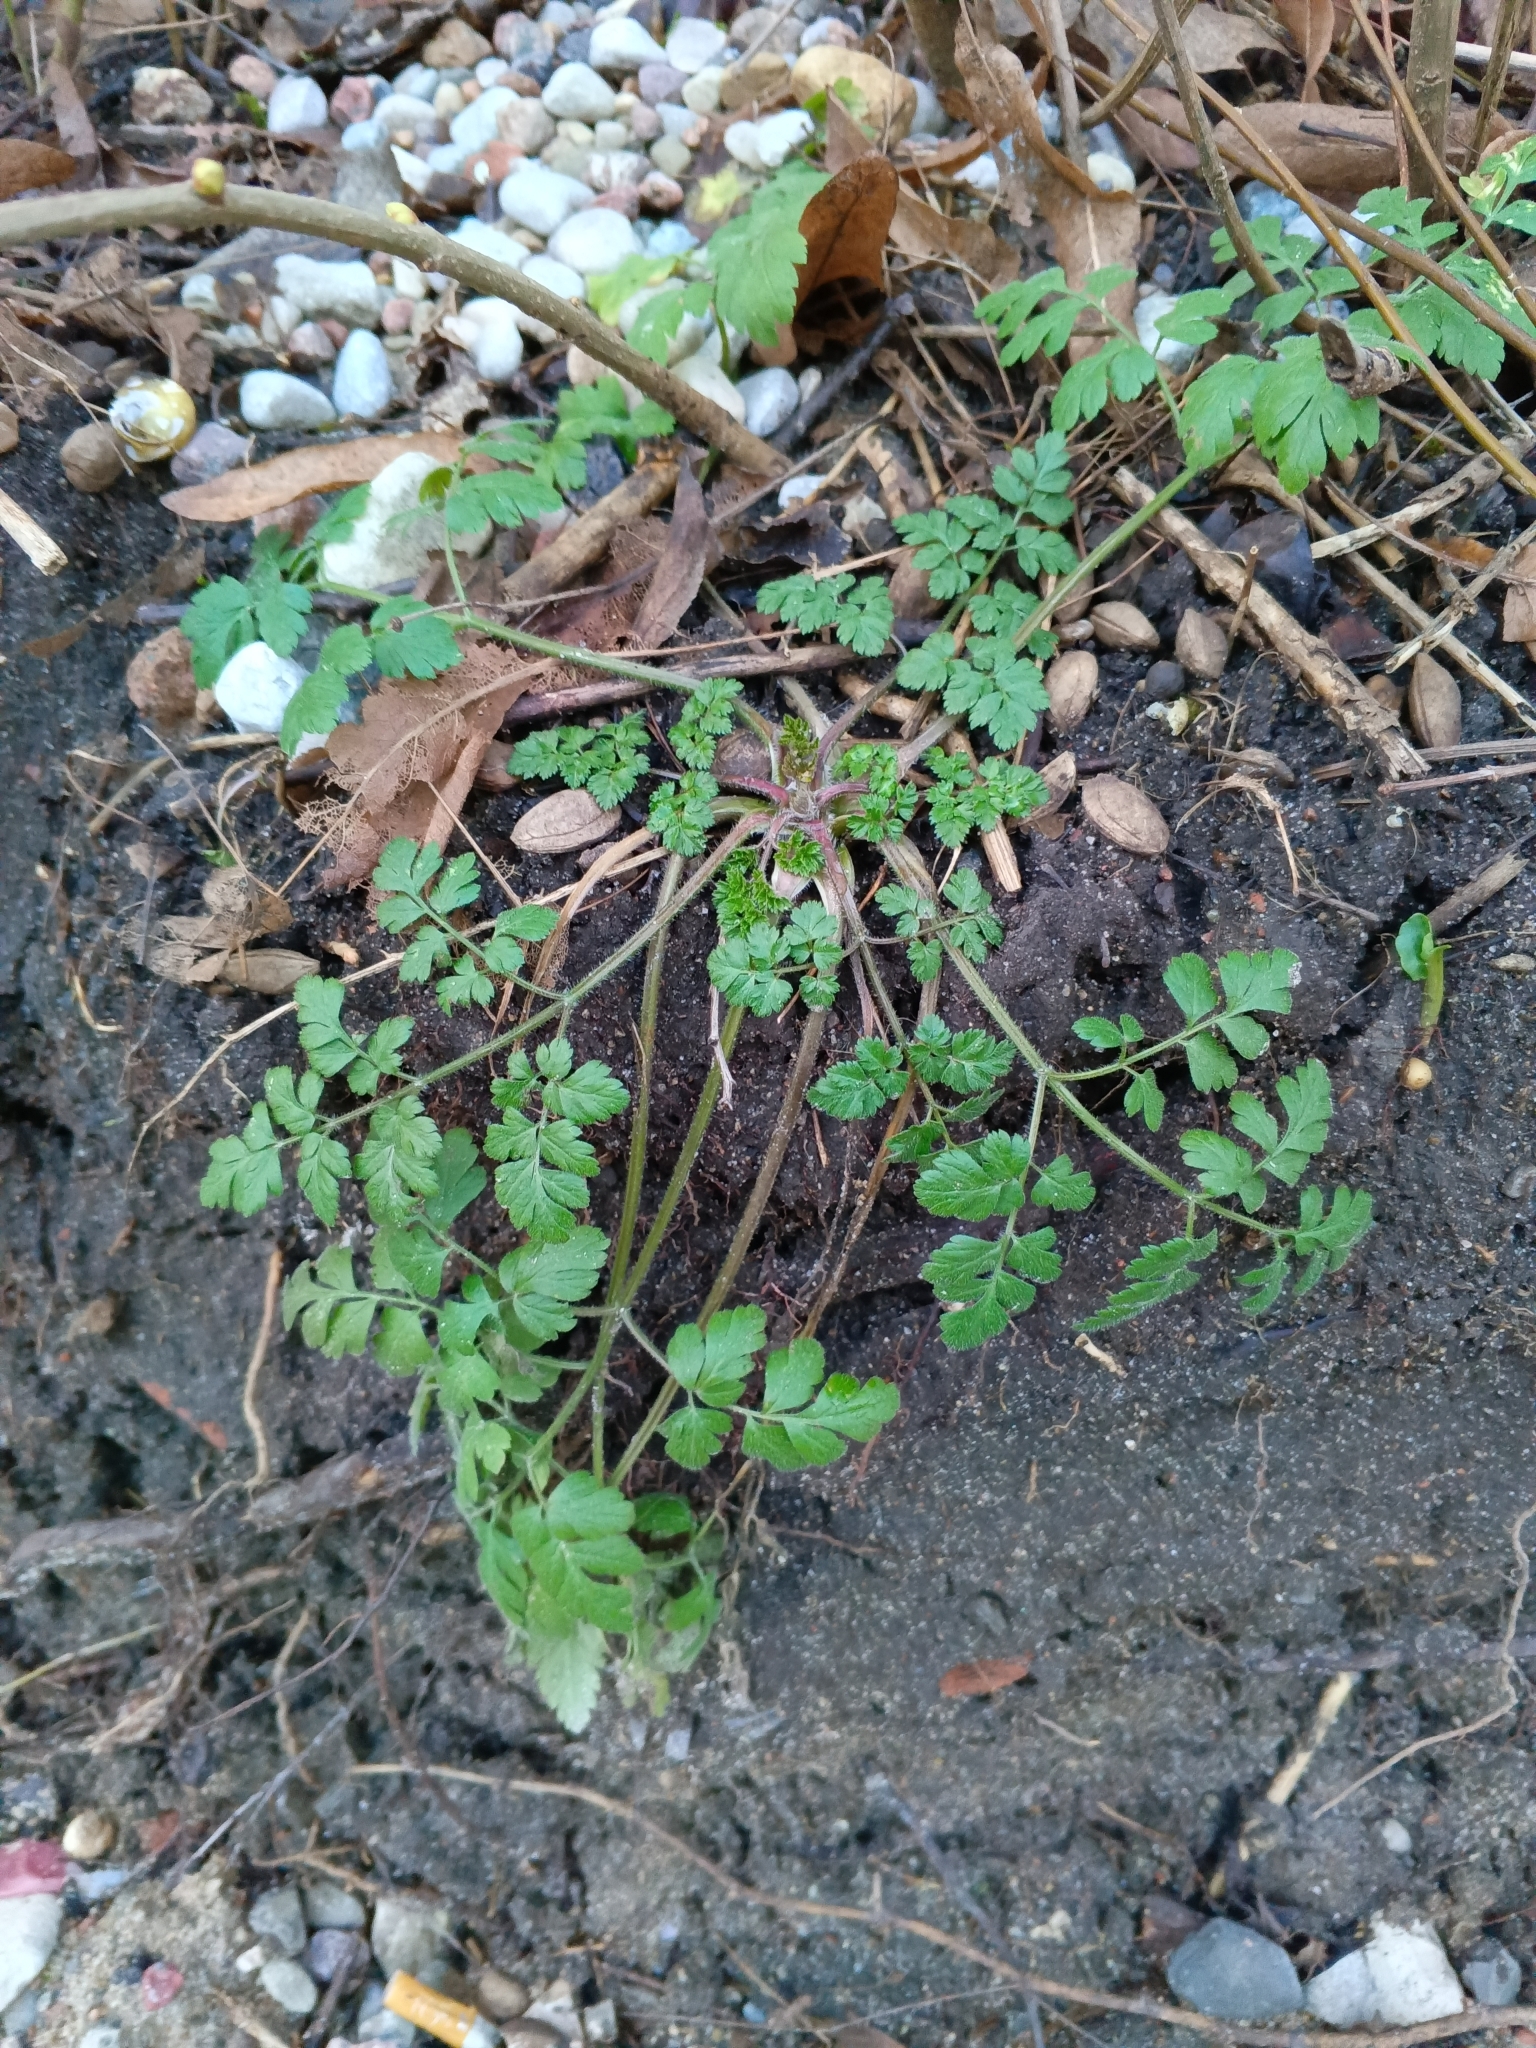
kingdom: Plantae
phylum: Tracheophyta
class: Magnoliopsida
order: Apiales
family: Apiaceae
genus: Chaerophyllum
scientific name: Chaerophyllum temulum
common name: Rough chervil
